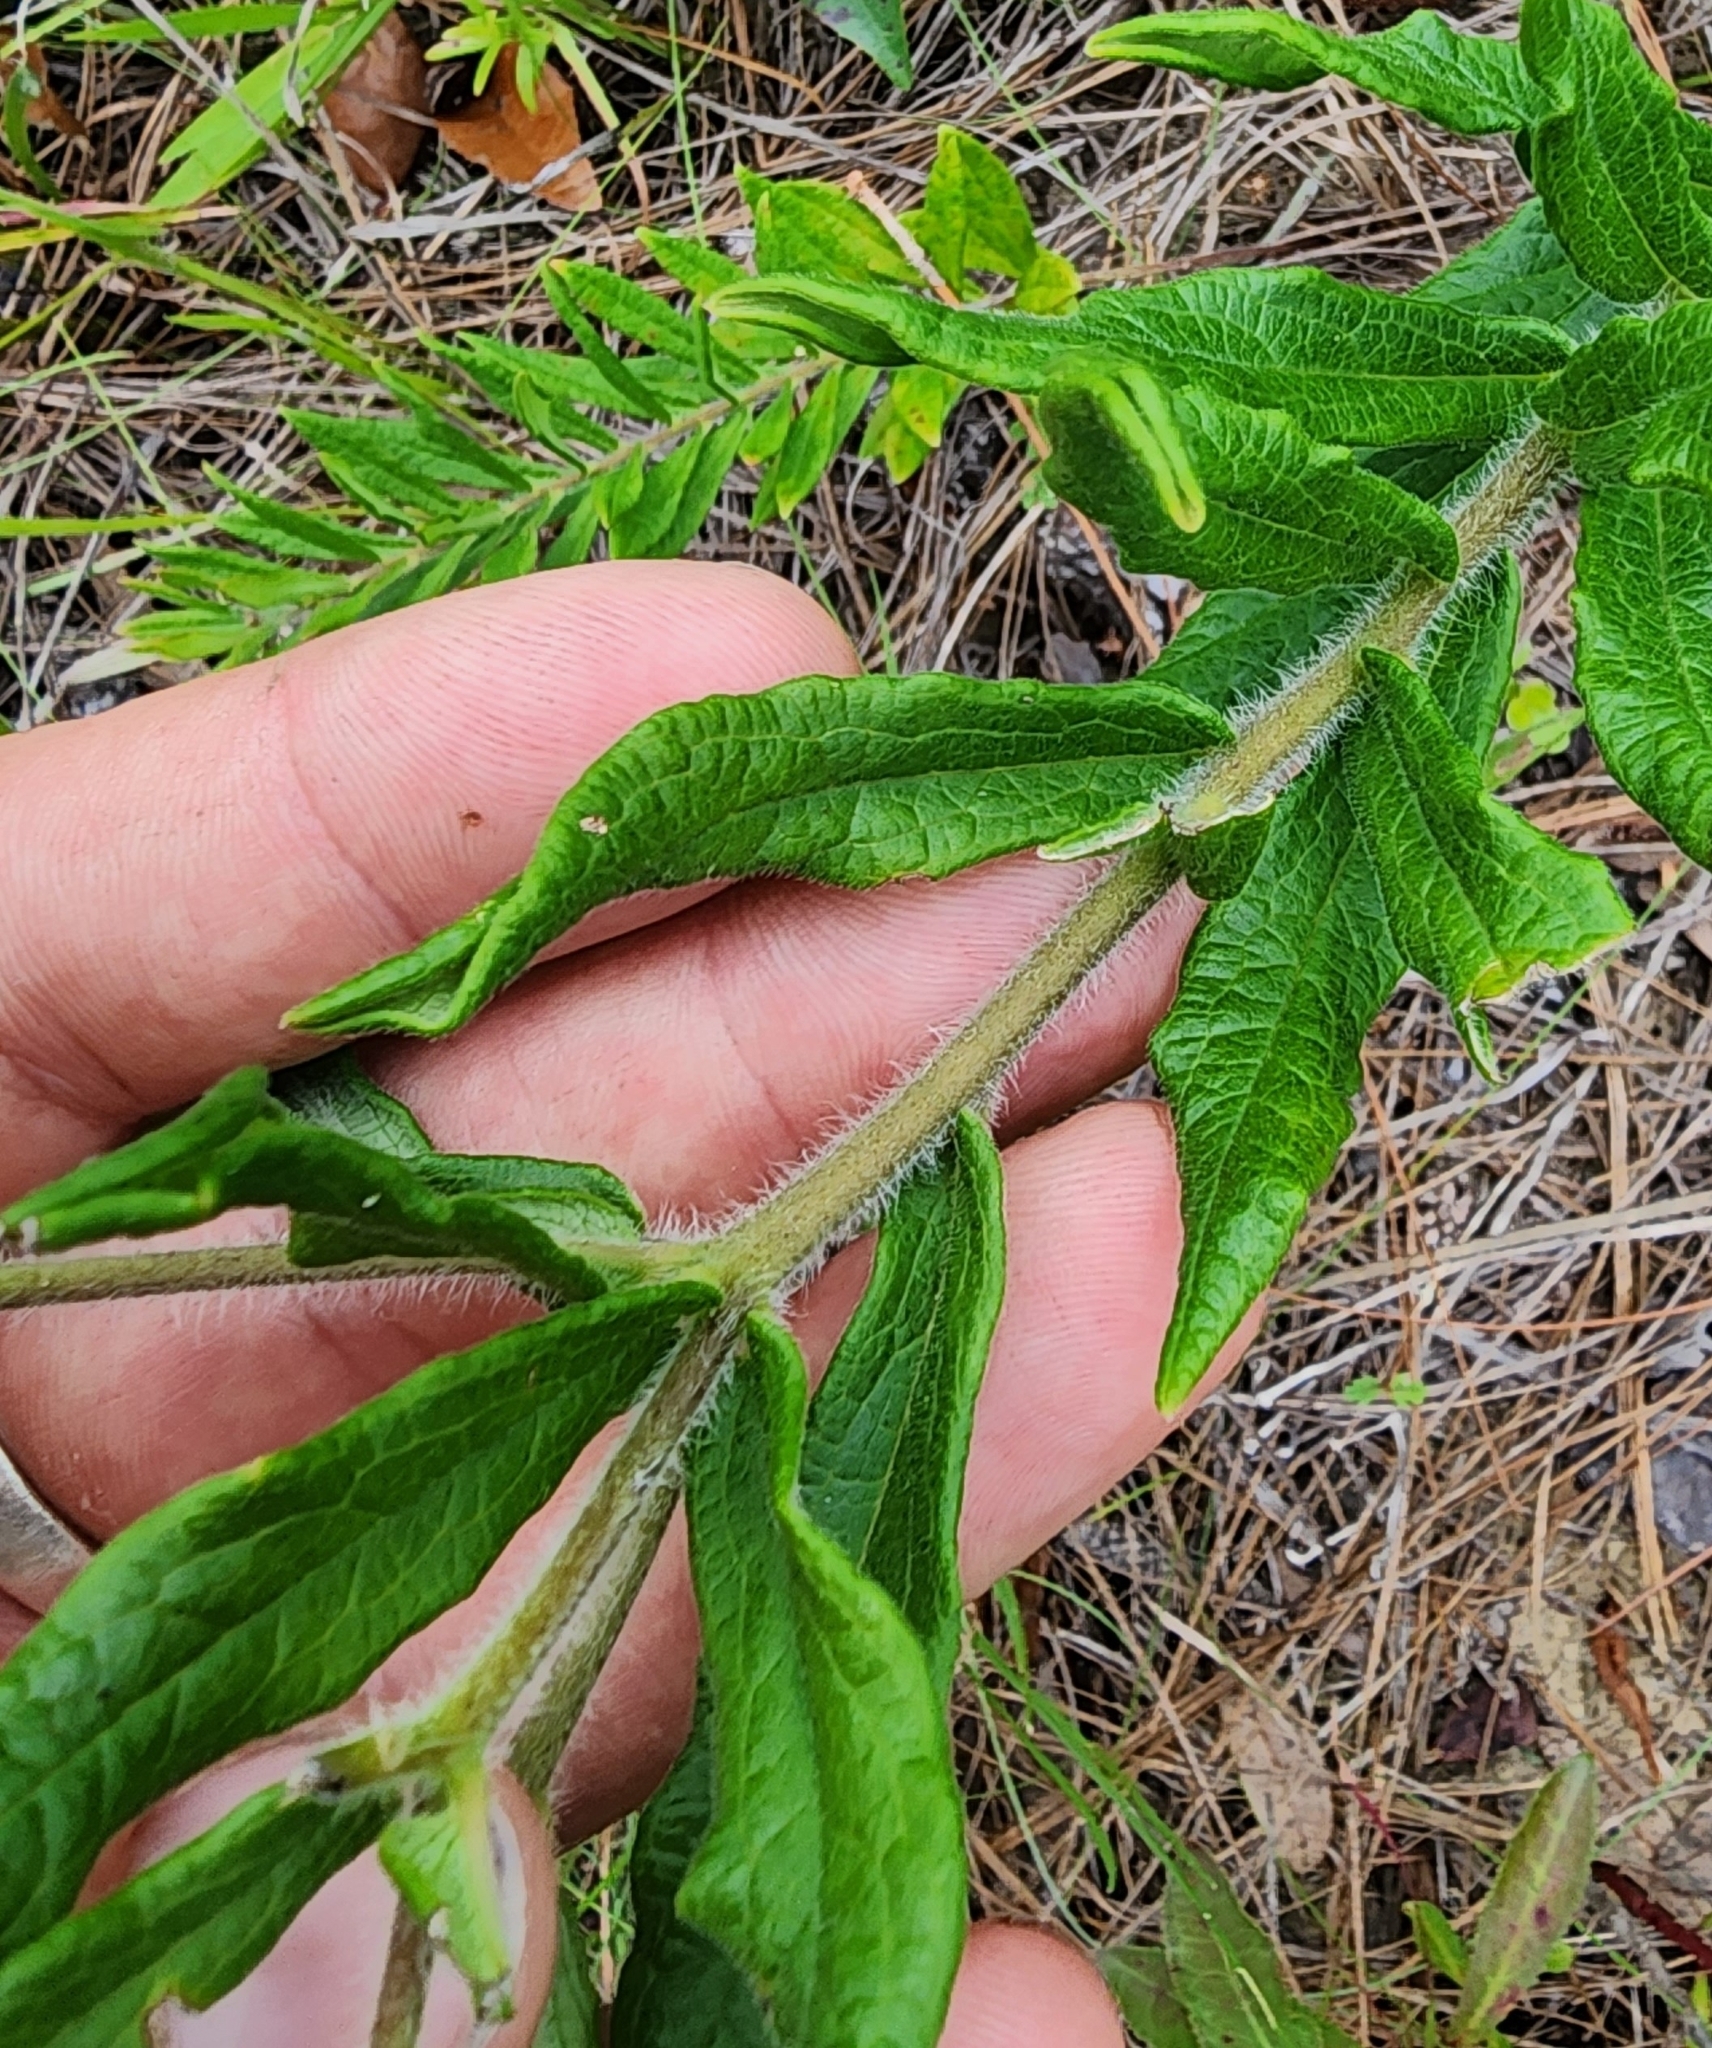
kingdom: Plantae
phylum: Tracheophyta
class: Magnoliopsida
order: Gentianales
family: Apocynaceae
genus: Asclepias
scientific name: Asclepias tuberosa
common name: Butterfly milkweed
